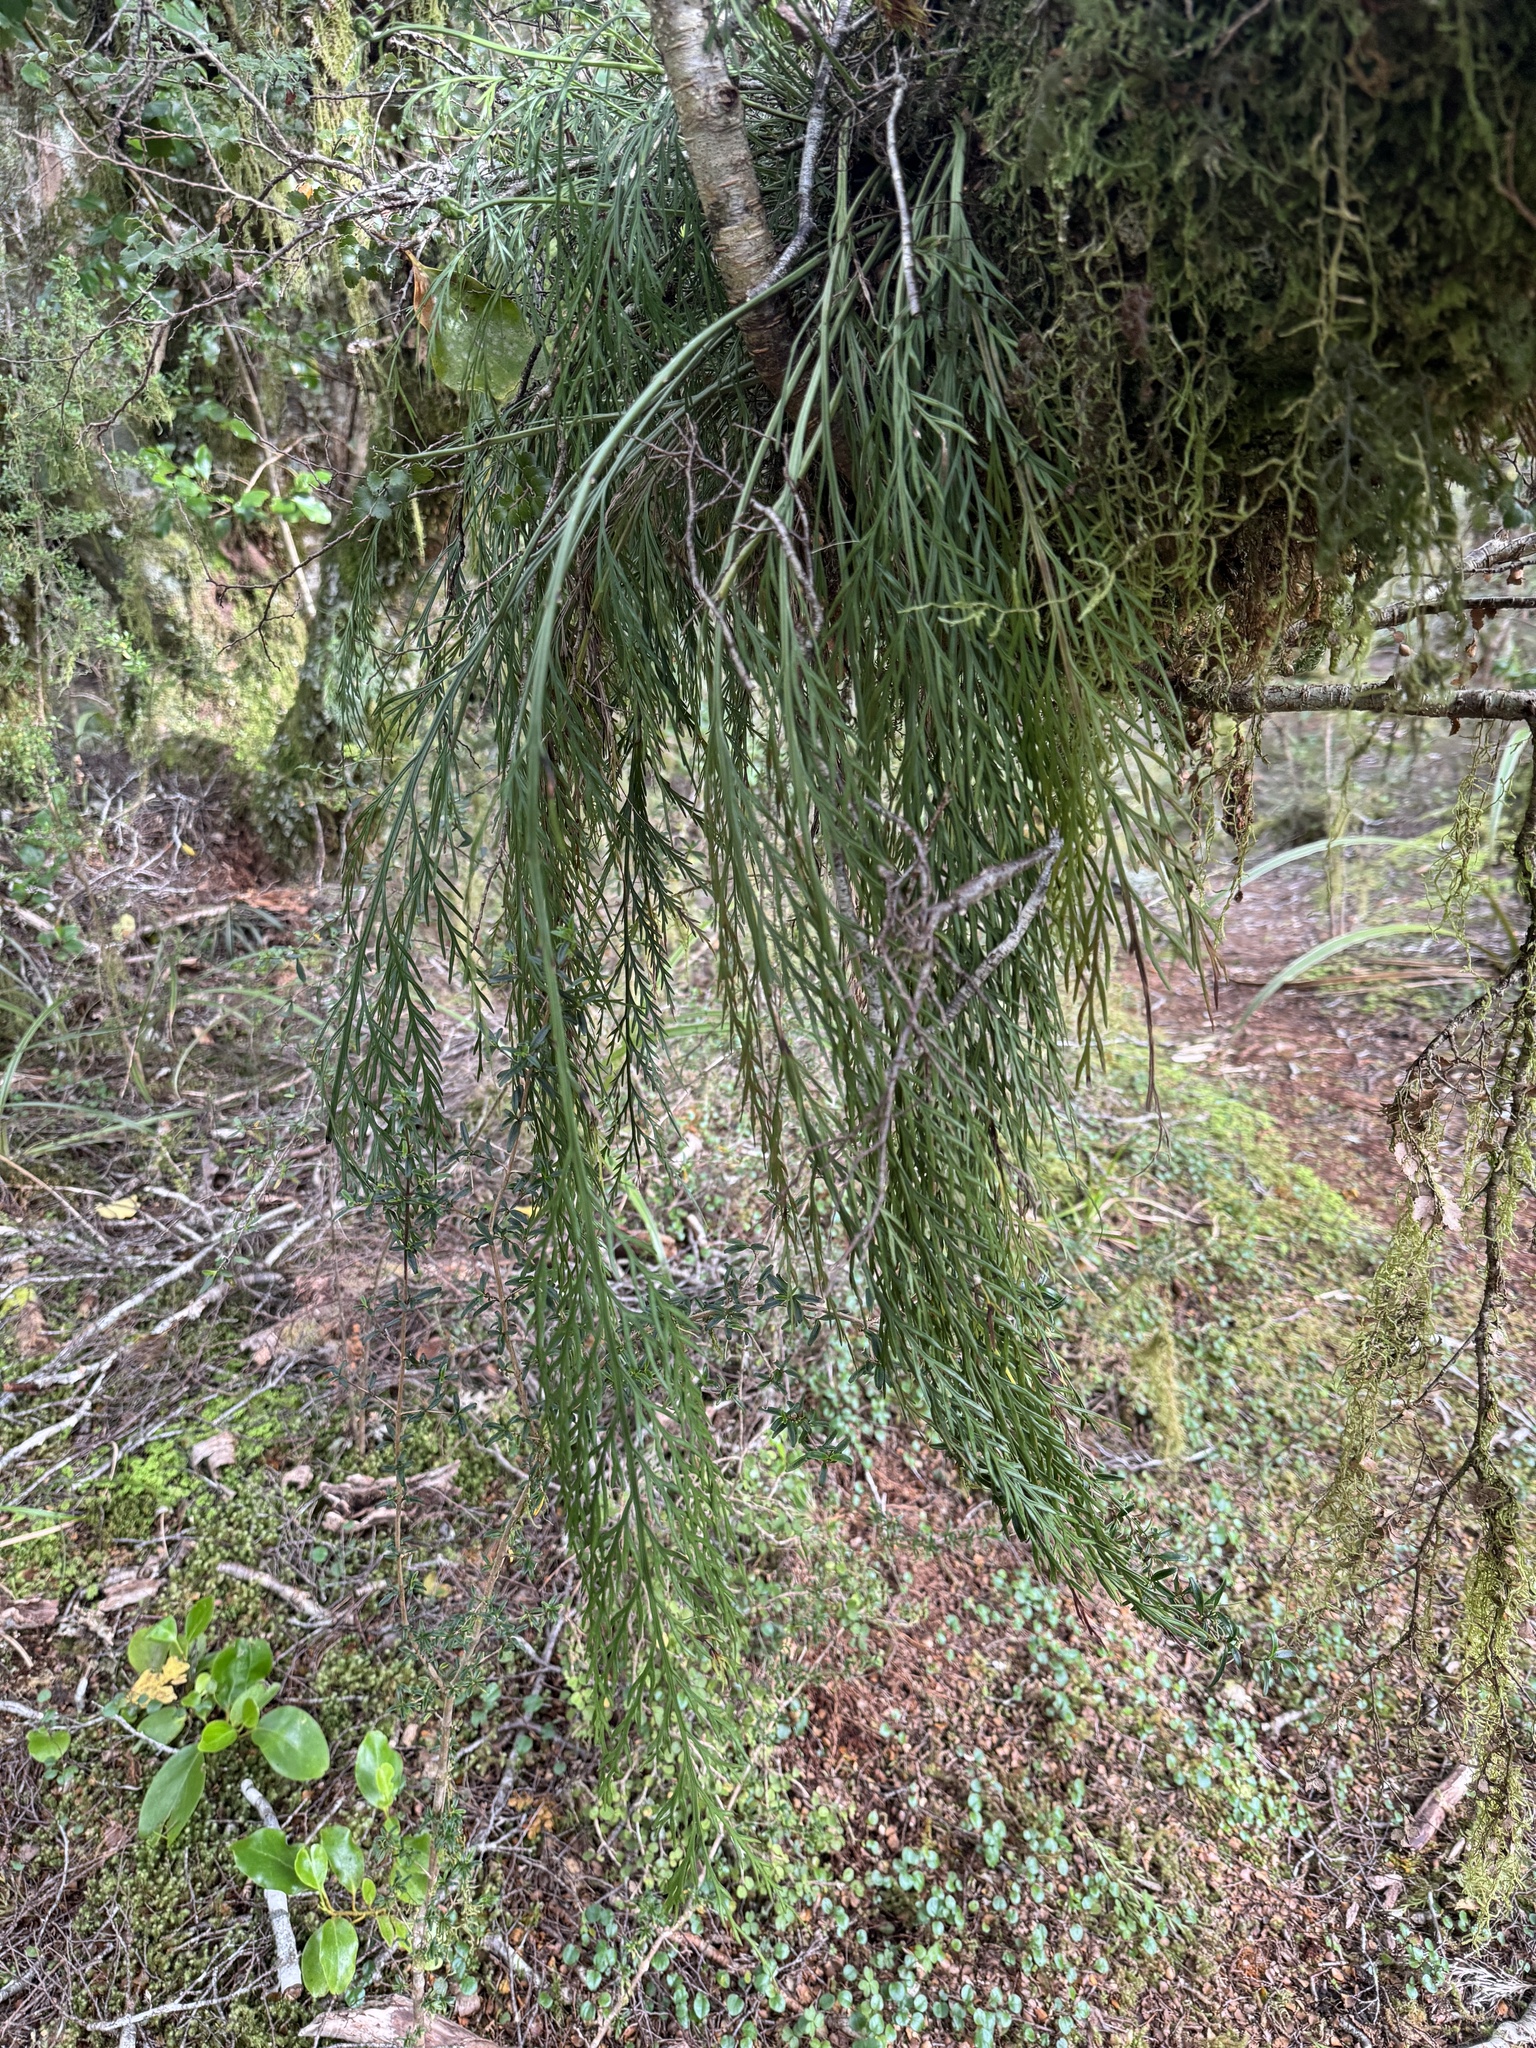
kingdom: Plantae
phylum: Tracheophyta
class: Polypodiopsida
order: Polypodiales
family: Aspleniaceae
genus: Asplenium
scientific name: Asplenium flaccidum
